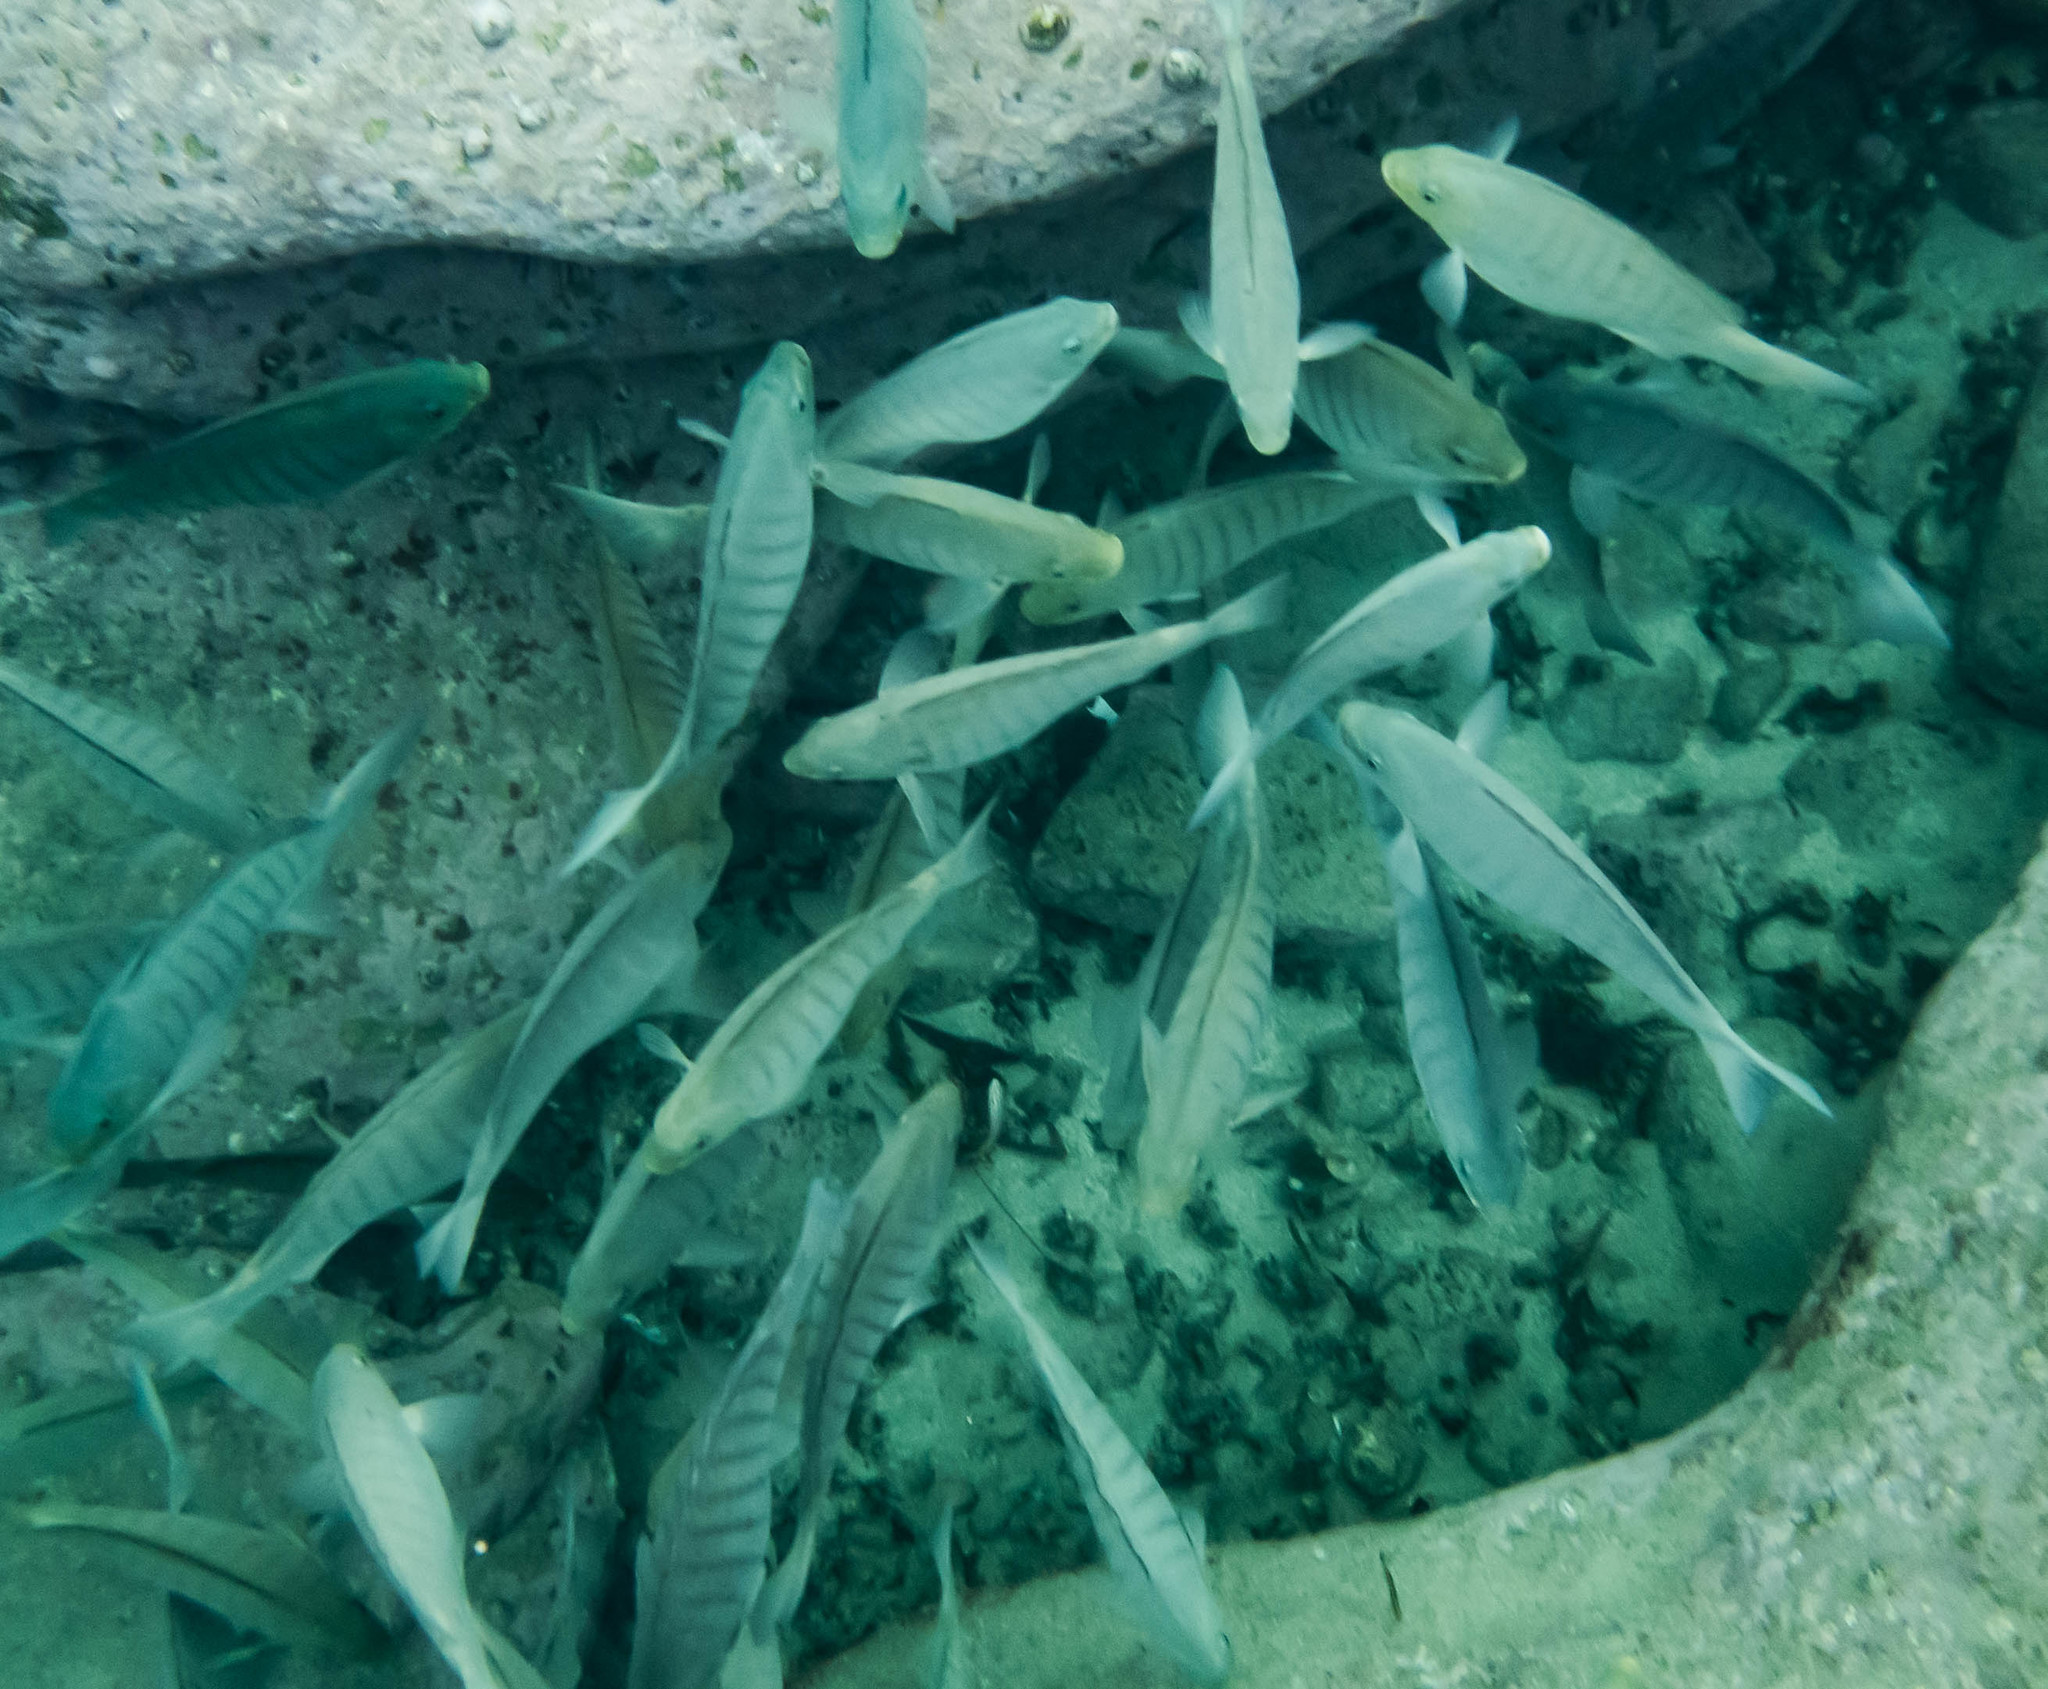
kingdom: Animalia
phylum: Chordata
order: Perciformes
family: Kyphosidae
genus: Girella
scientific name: Girella tricuspidata
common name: Parore
